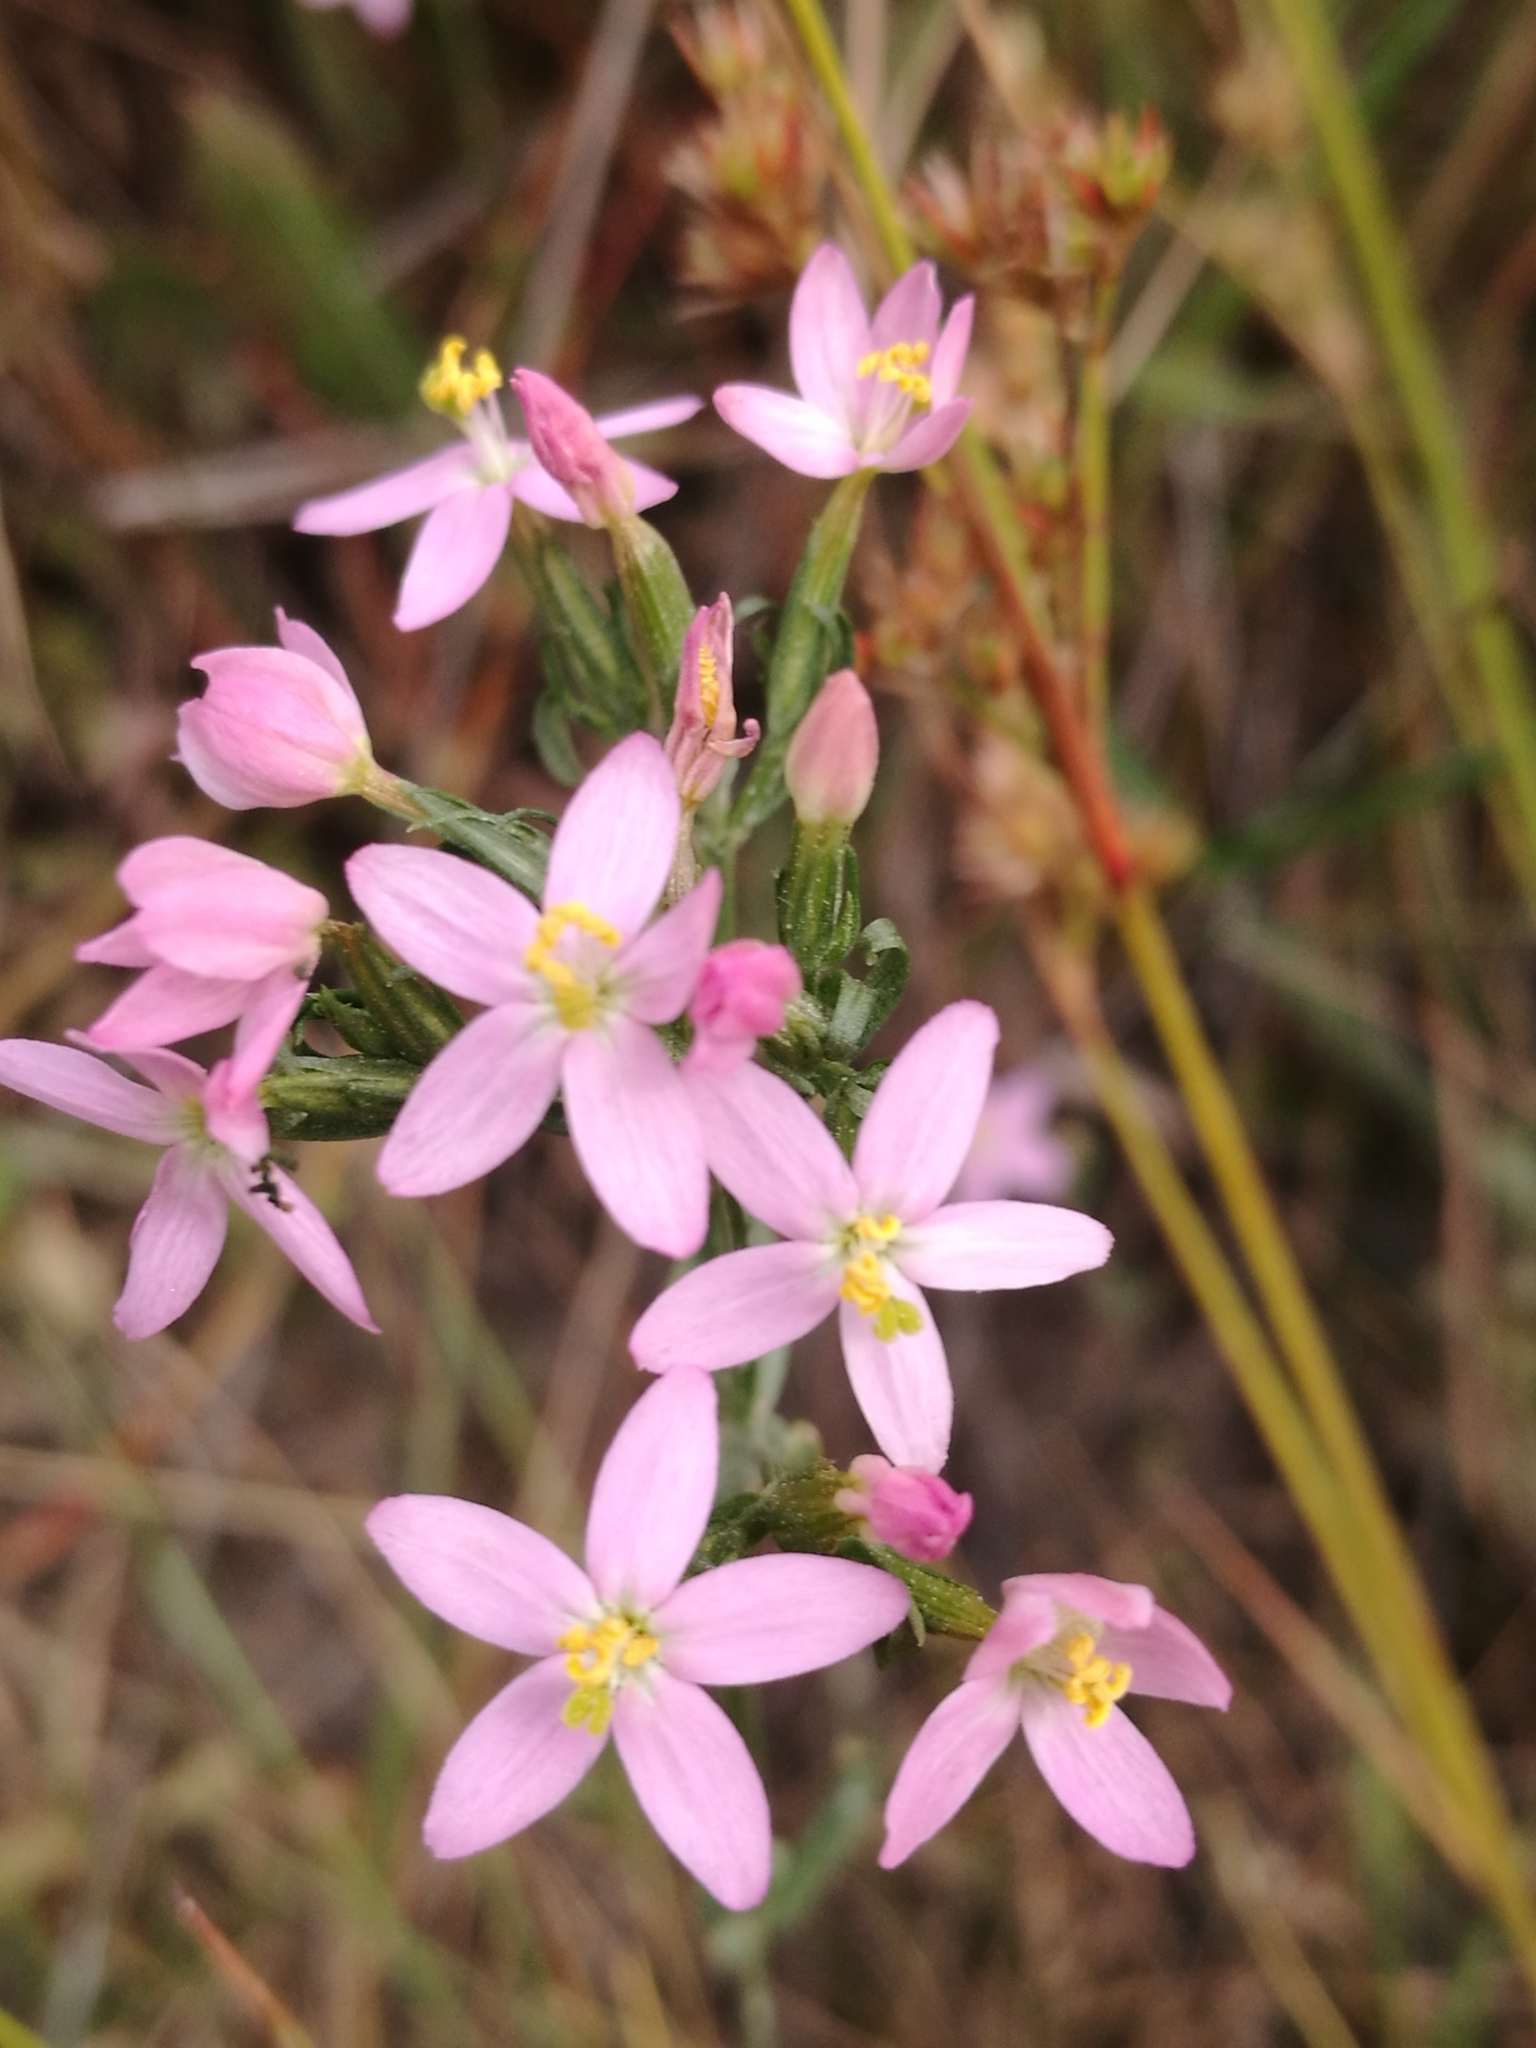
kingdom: Plantae
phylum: Tracheophyta
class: Magnoliopsida
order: Gentianales
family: Gentianaceae
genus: Centaurium
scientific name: Centaurium erythraea
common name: Common centaury
